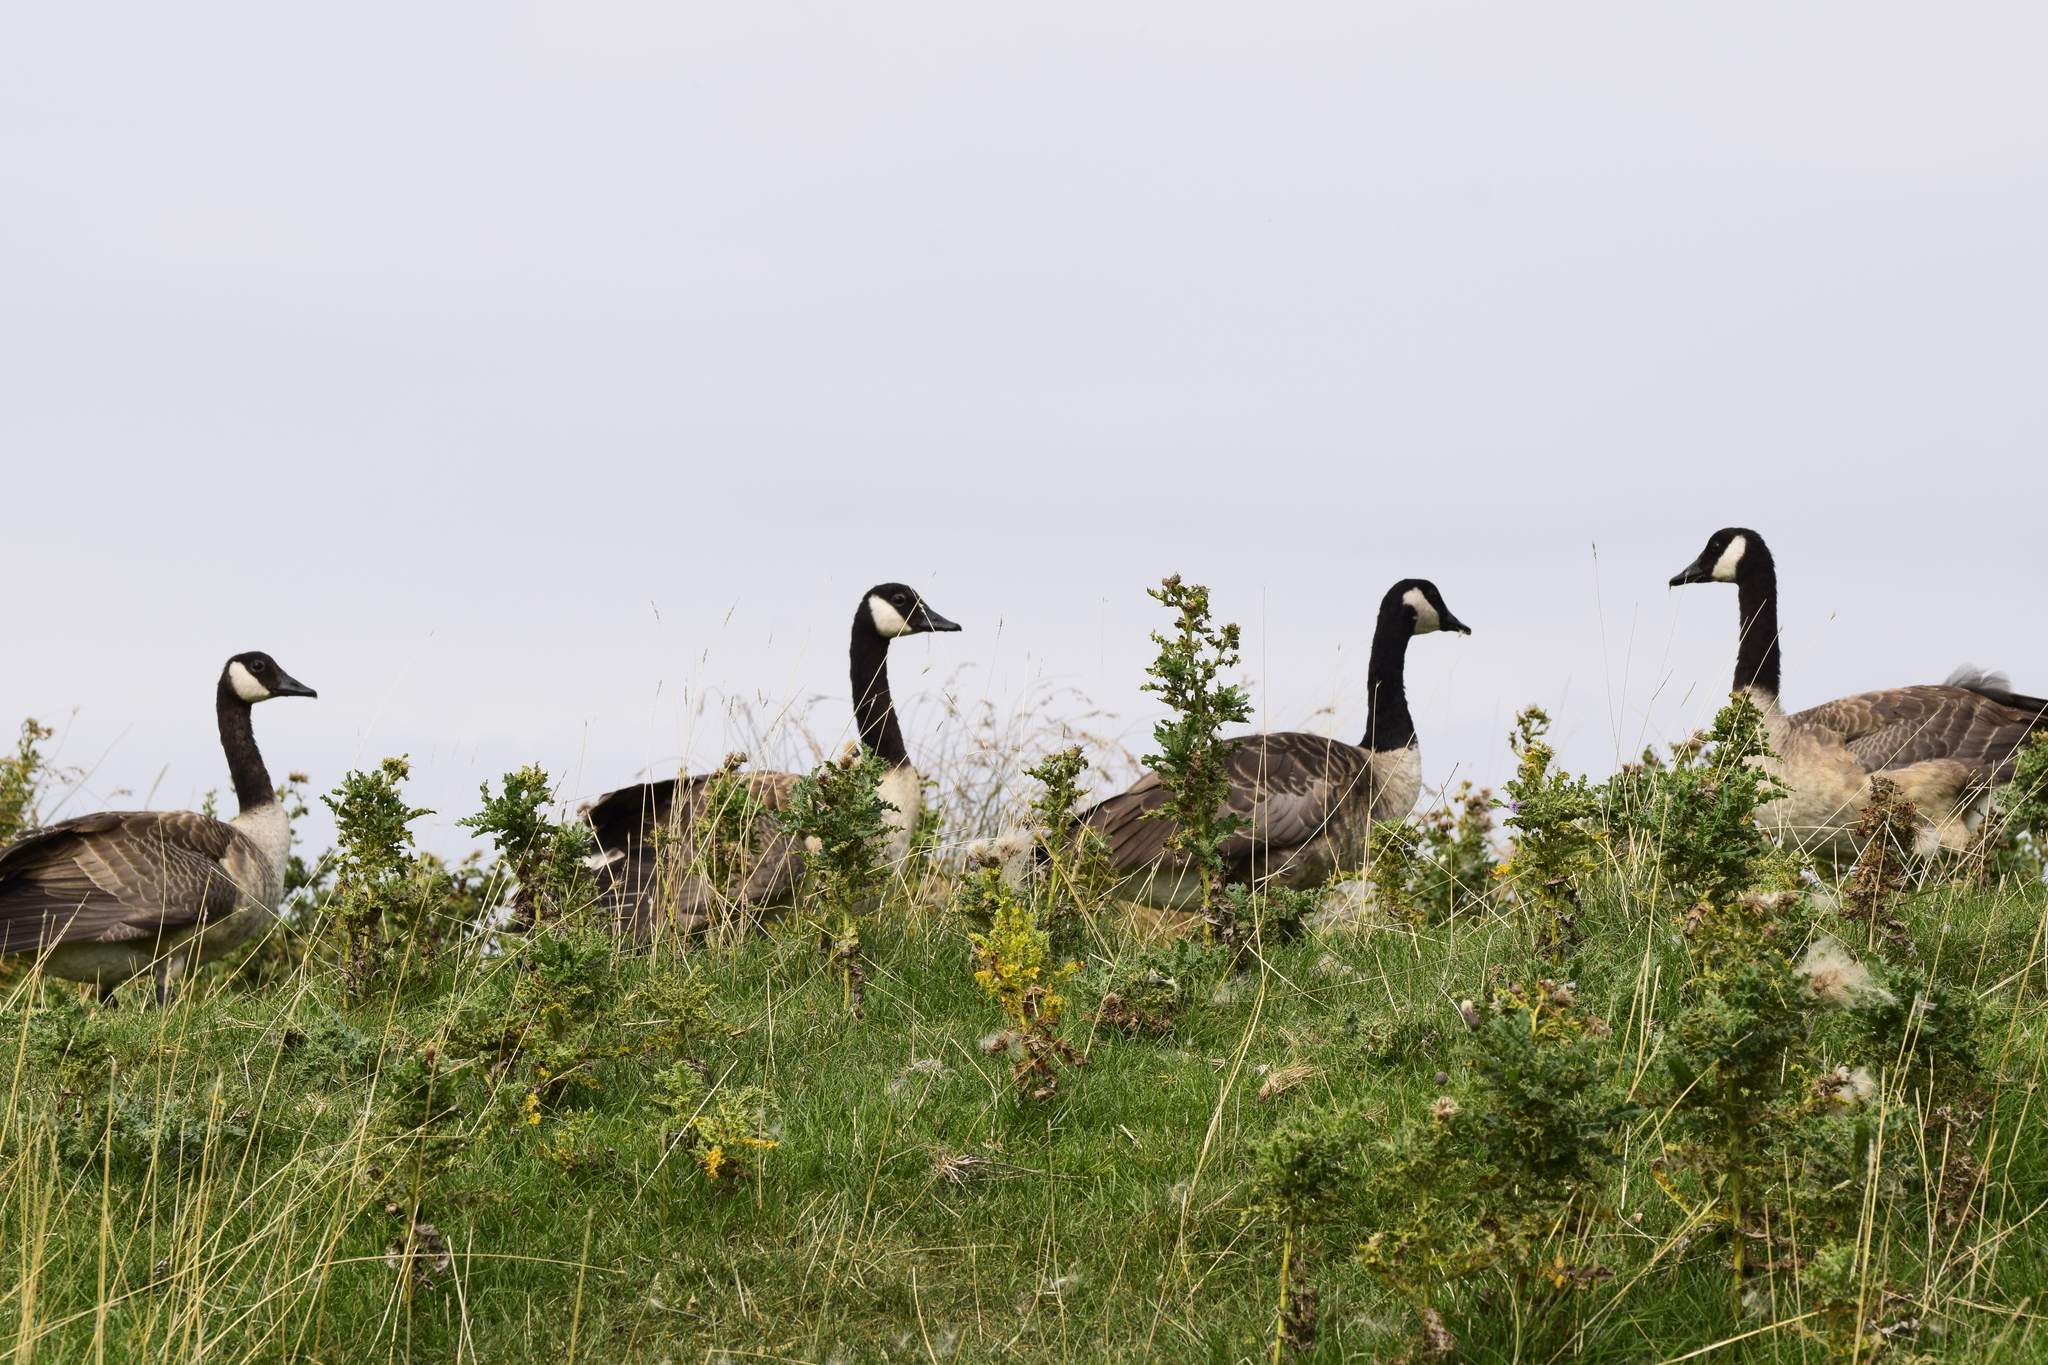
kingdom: Animalia
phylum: Chordata
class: Aves
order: Anseriformes
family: Anatidae
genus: Branta
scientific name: Branta canadensis
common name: Canada goose
